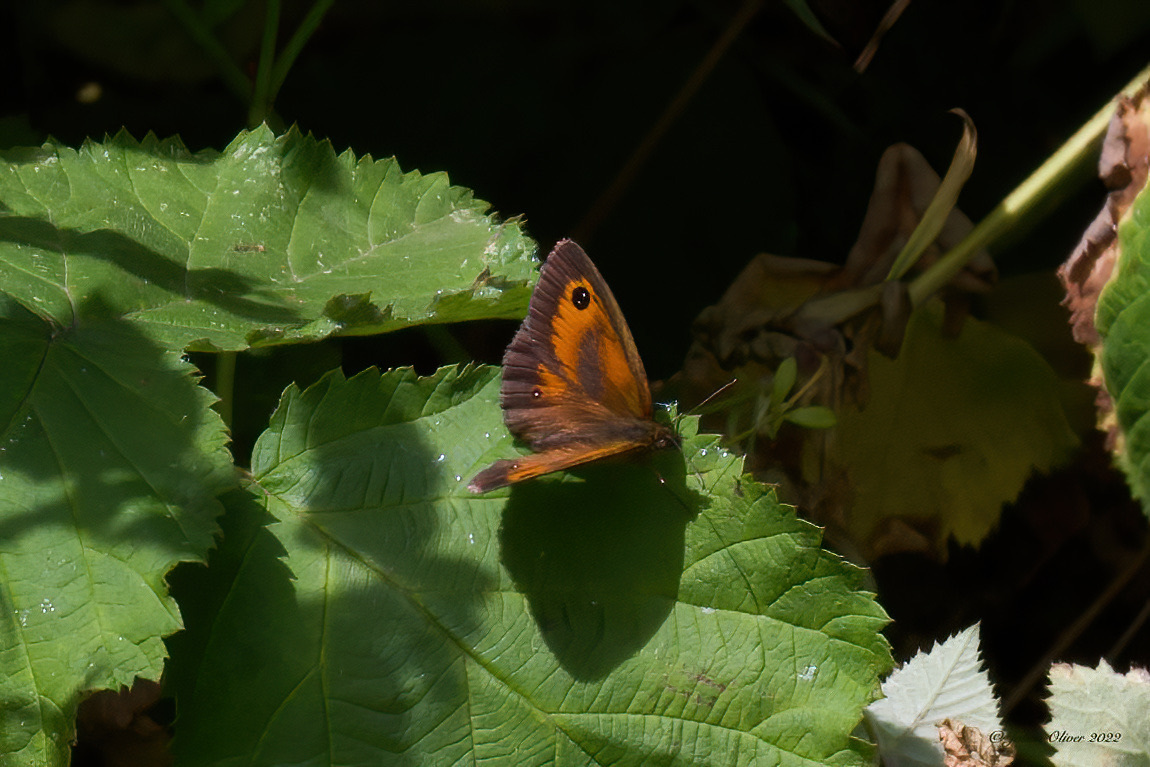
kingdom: Animalia
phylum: Arthropoda
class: Insecta
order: Lepidoptera
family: Nymphalidae
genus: Pyronia
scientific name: Pyronia tithonus
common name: Gatekeeper
